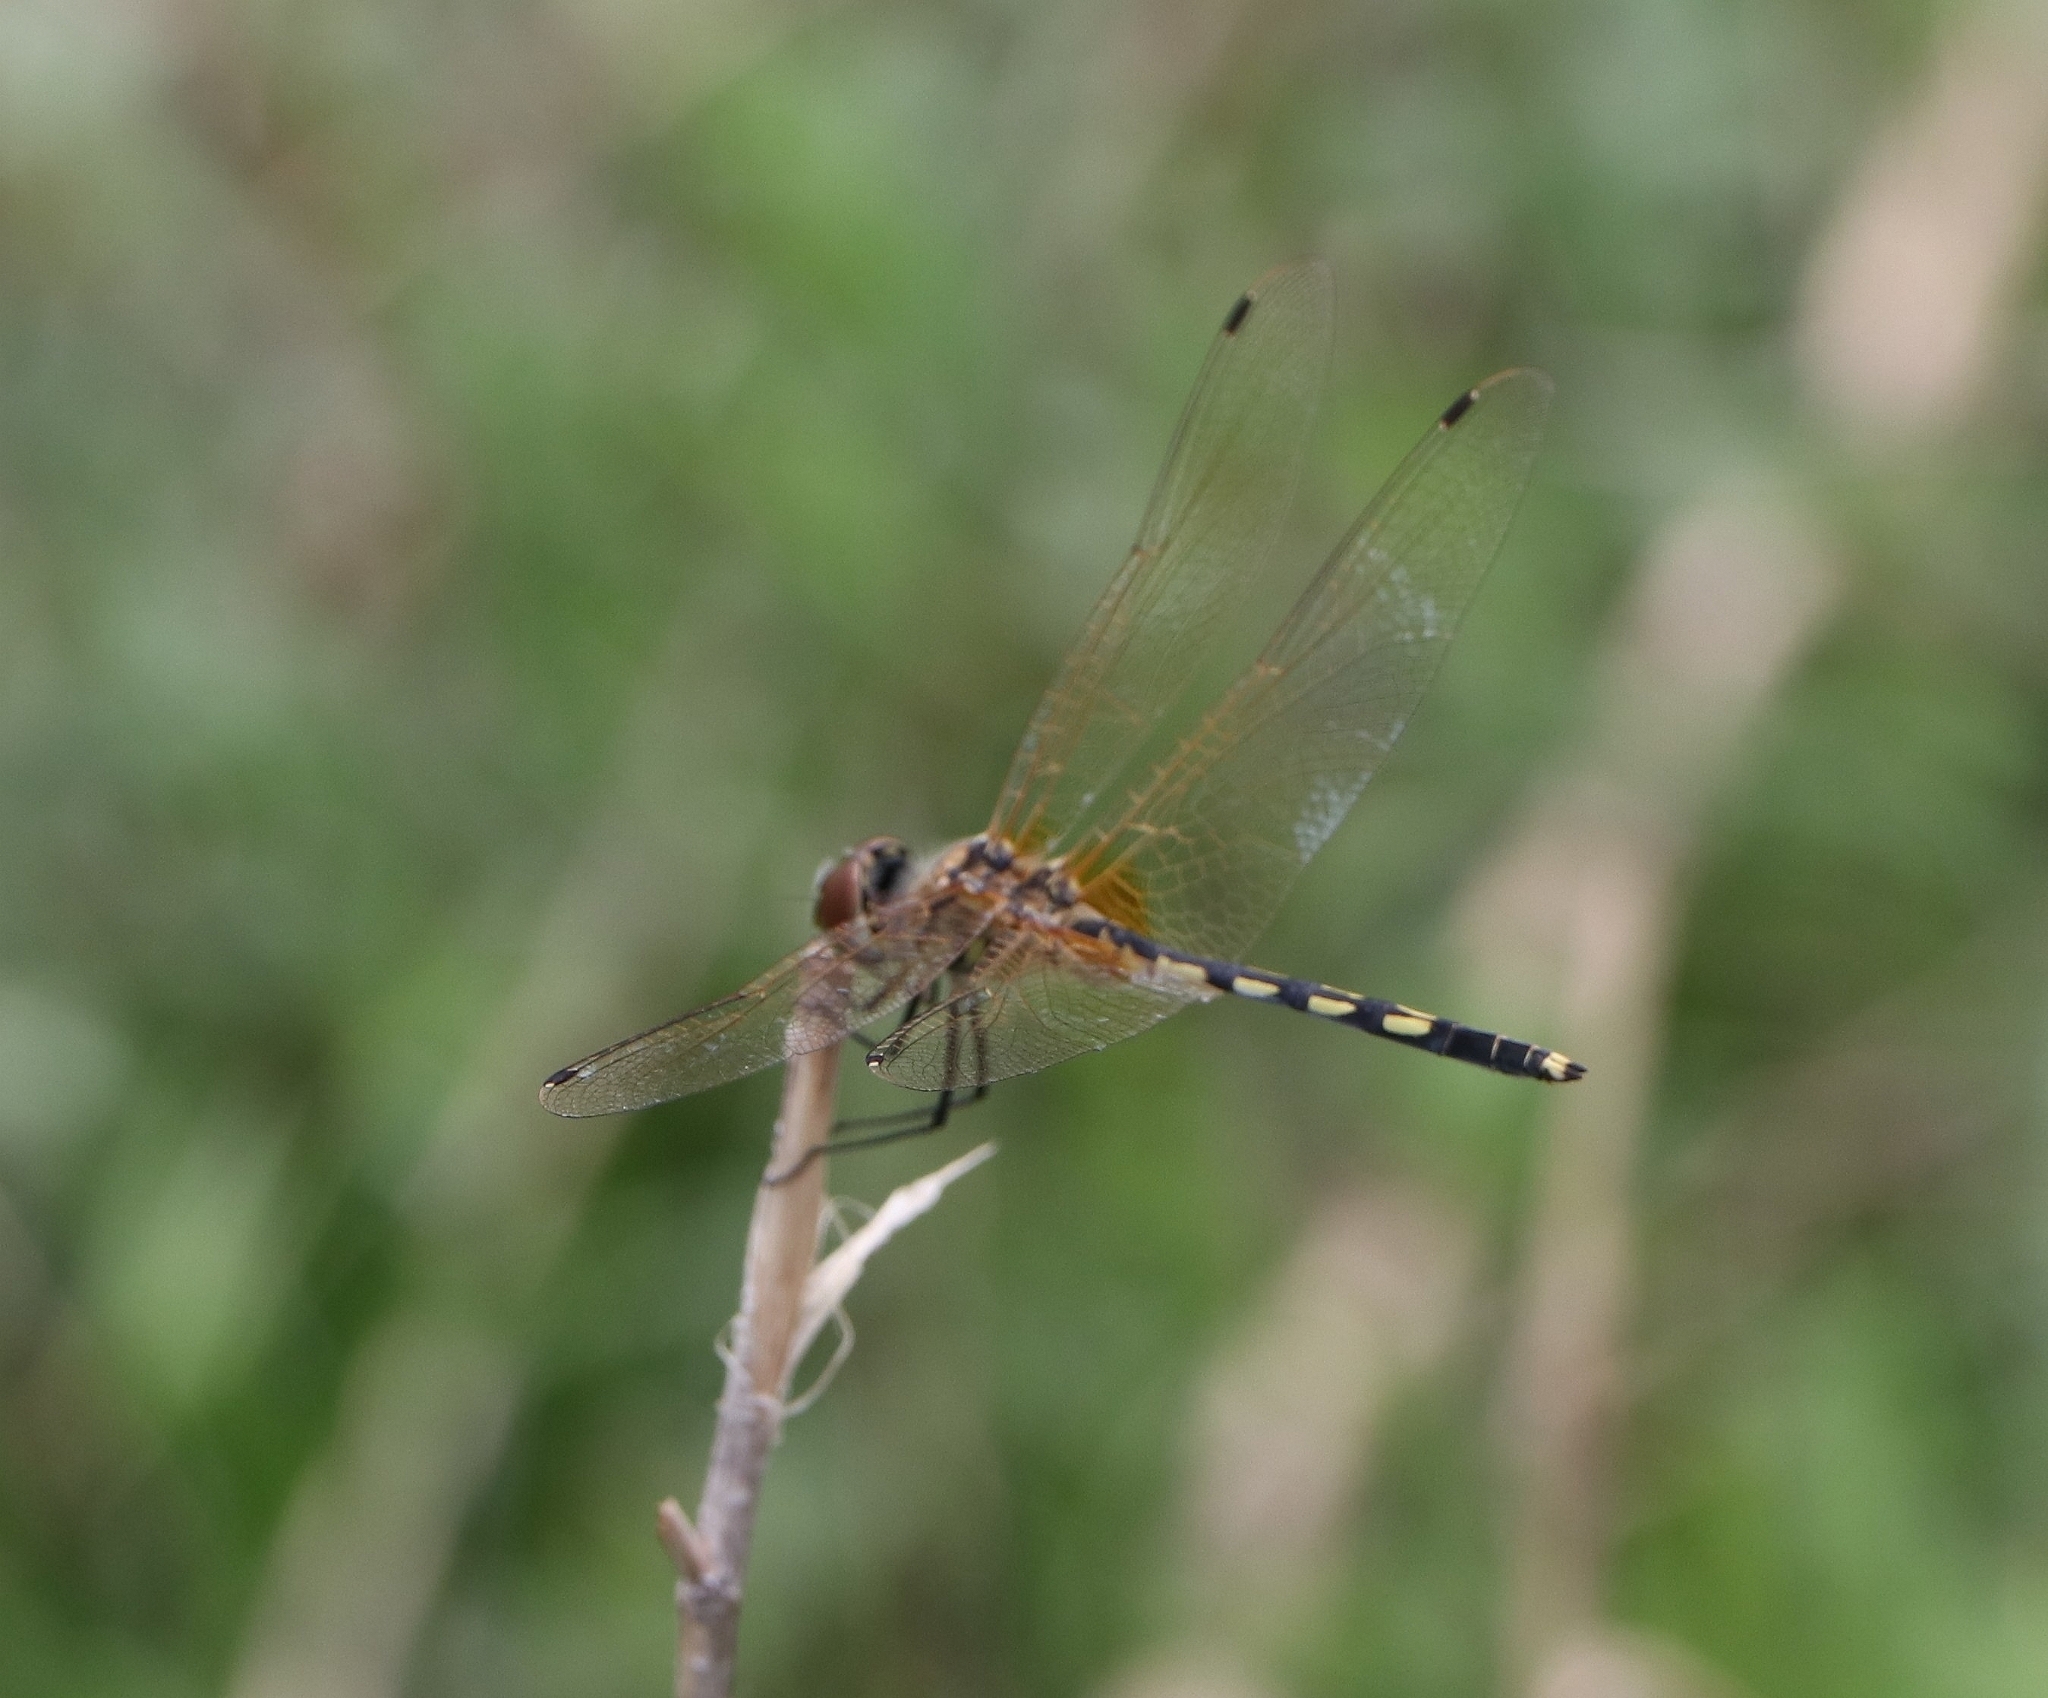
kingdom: Animalia
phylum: Arthropoda
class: Insecta
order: Odonata
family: Libellulidae
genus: Trithemis
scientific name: Trithemis pallidinervis
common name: Dancing dropwing
